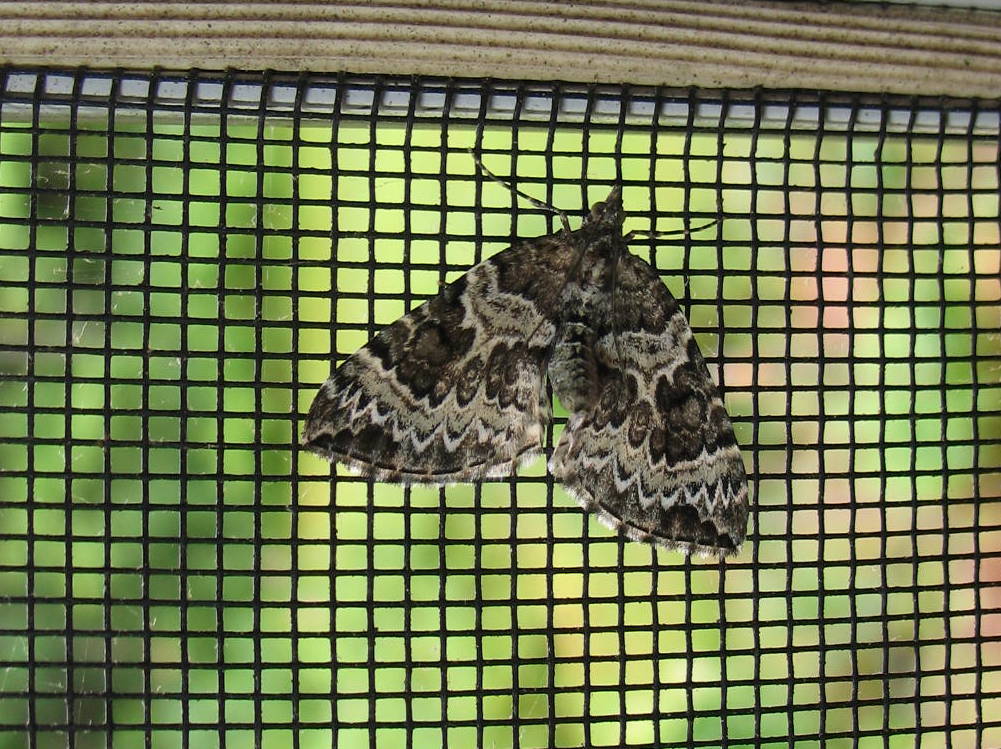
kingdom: Animalia
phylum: Arthropoda
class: Insecta
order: Lepidoptera
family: Geometridae
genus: Eulithis
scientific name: Eulithis explanata
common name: White eulithis
